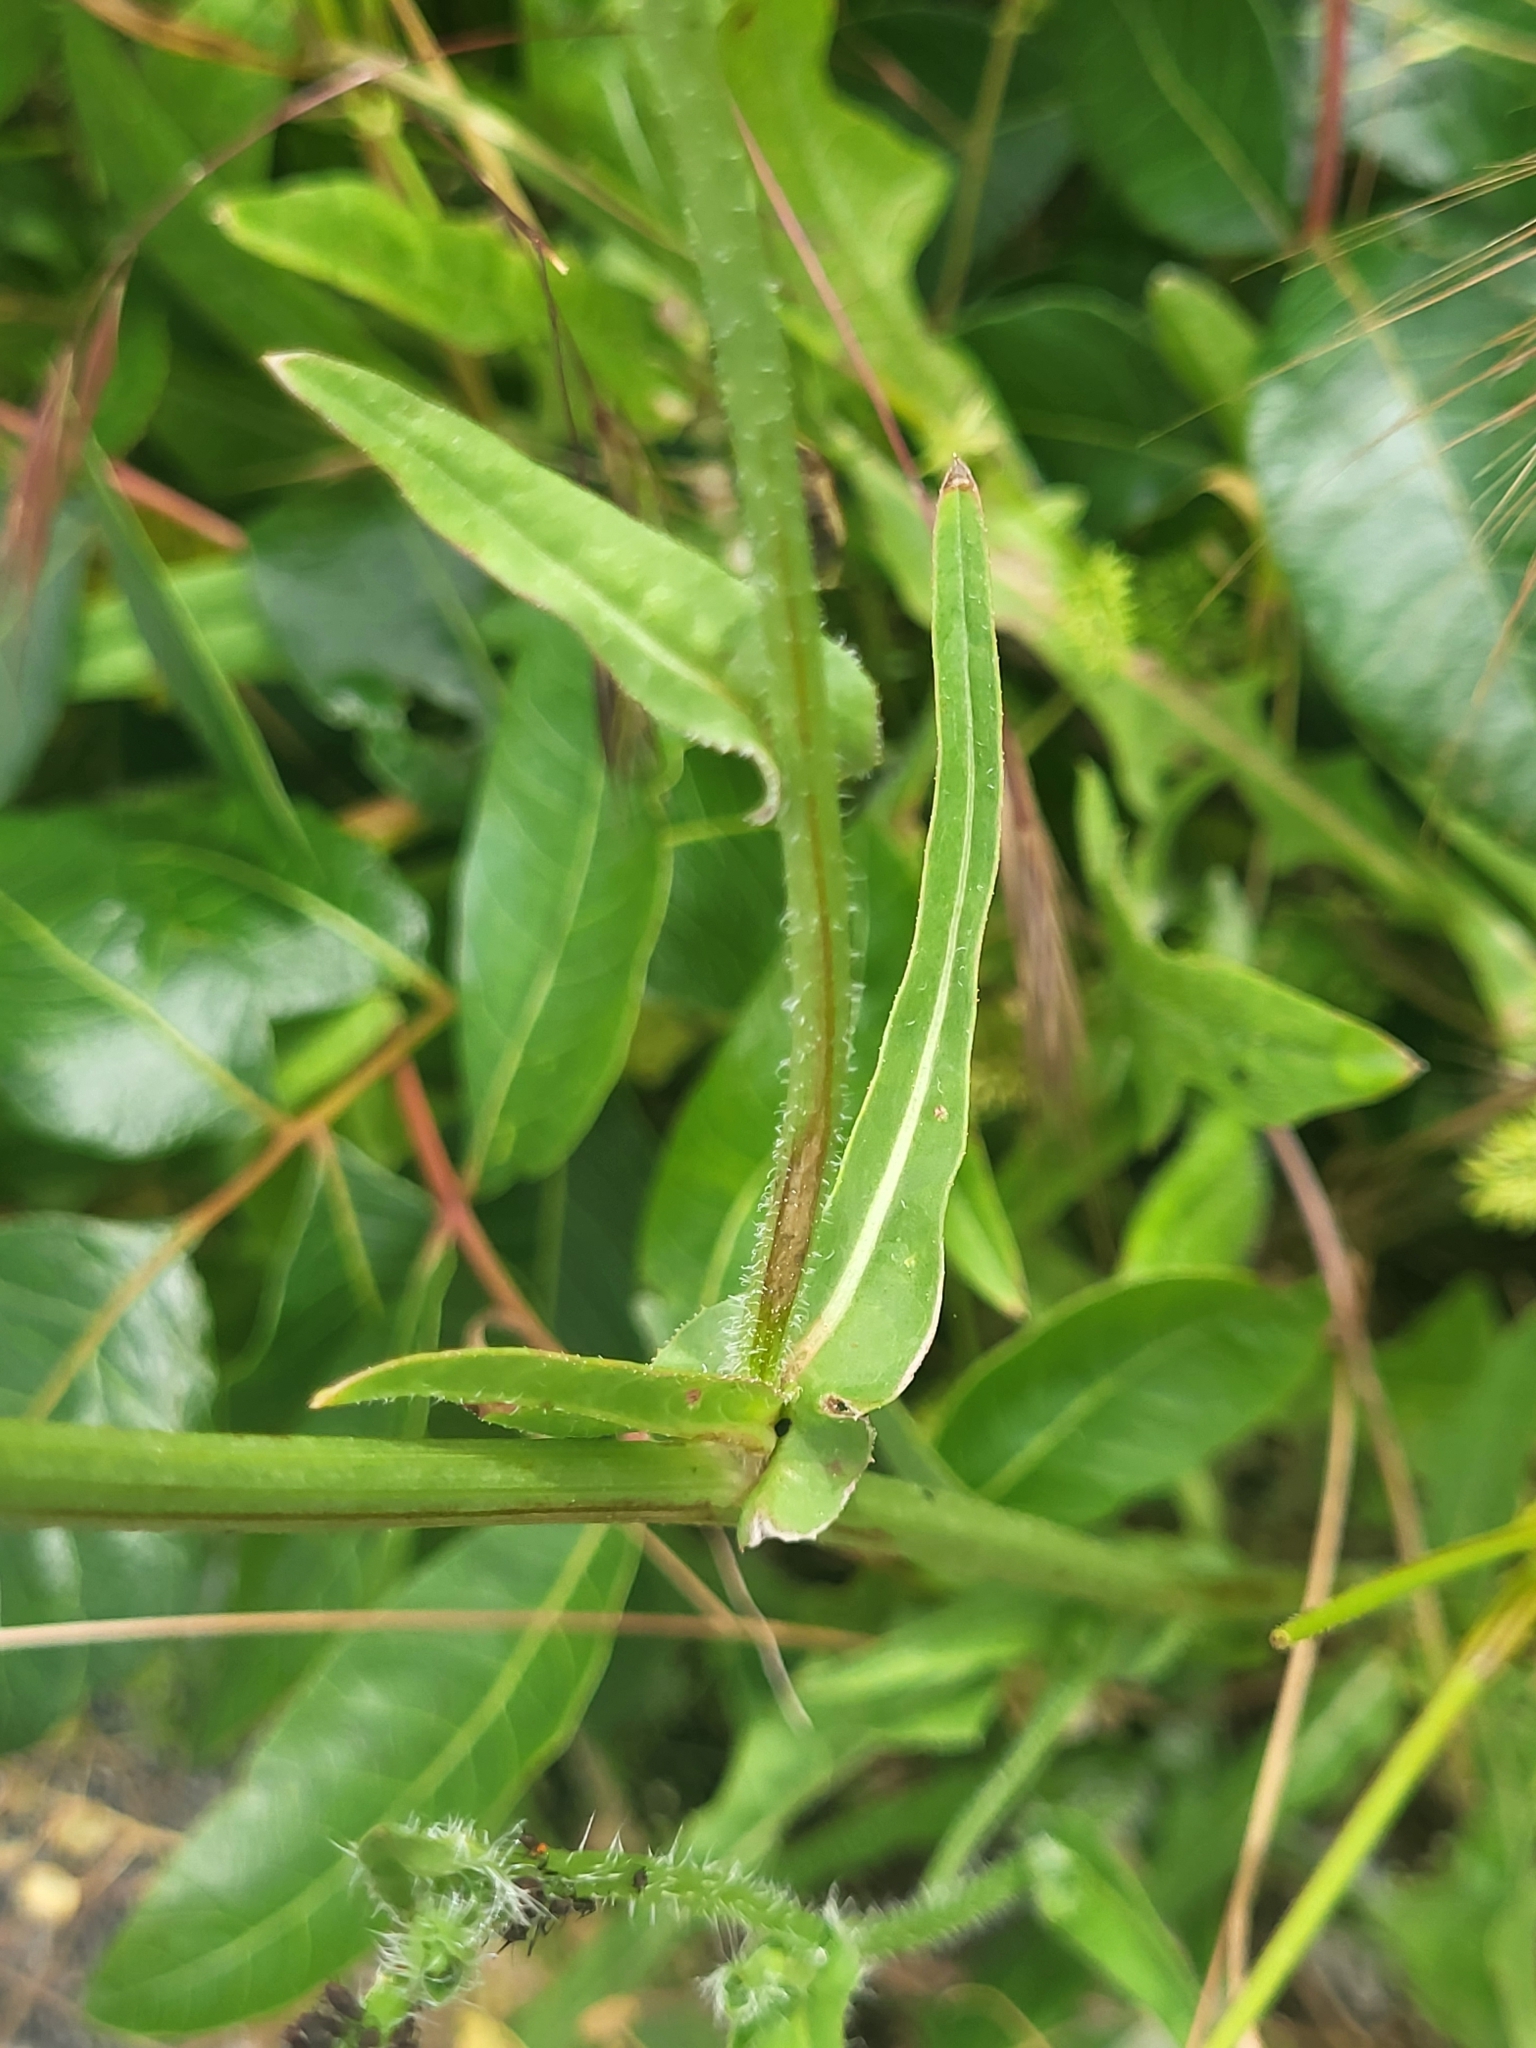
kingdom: Plantae
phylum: Tracheophyta
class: Magnoliopsida
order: Asterales
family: Asteraceae
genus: Cichorium
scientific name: Cichorium intybus
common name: Chicory
